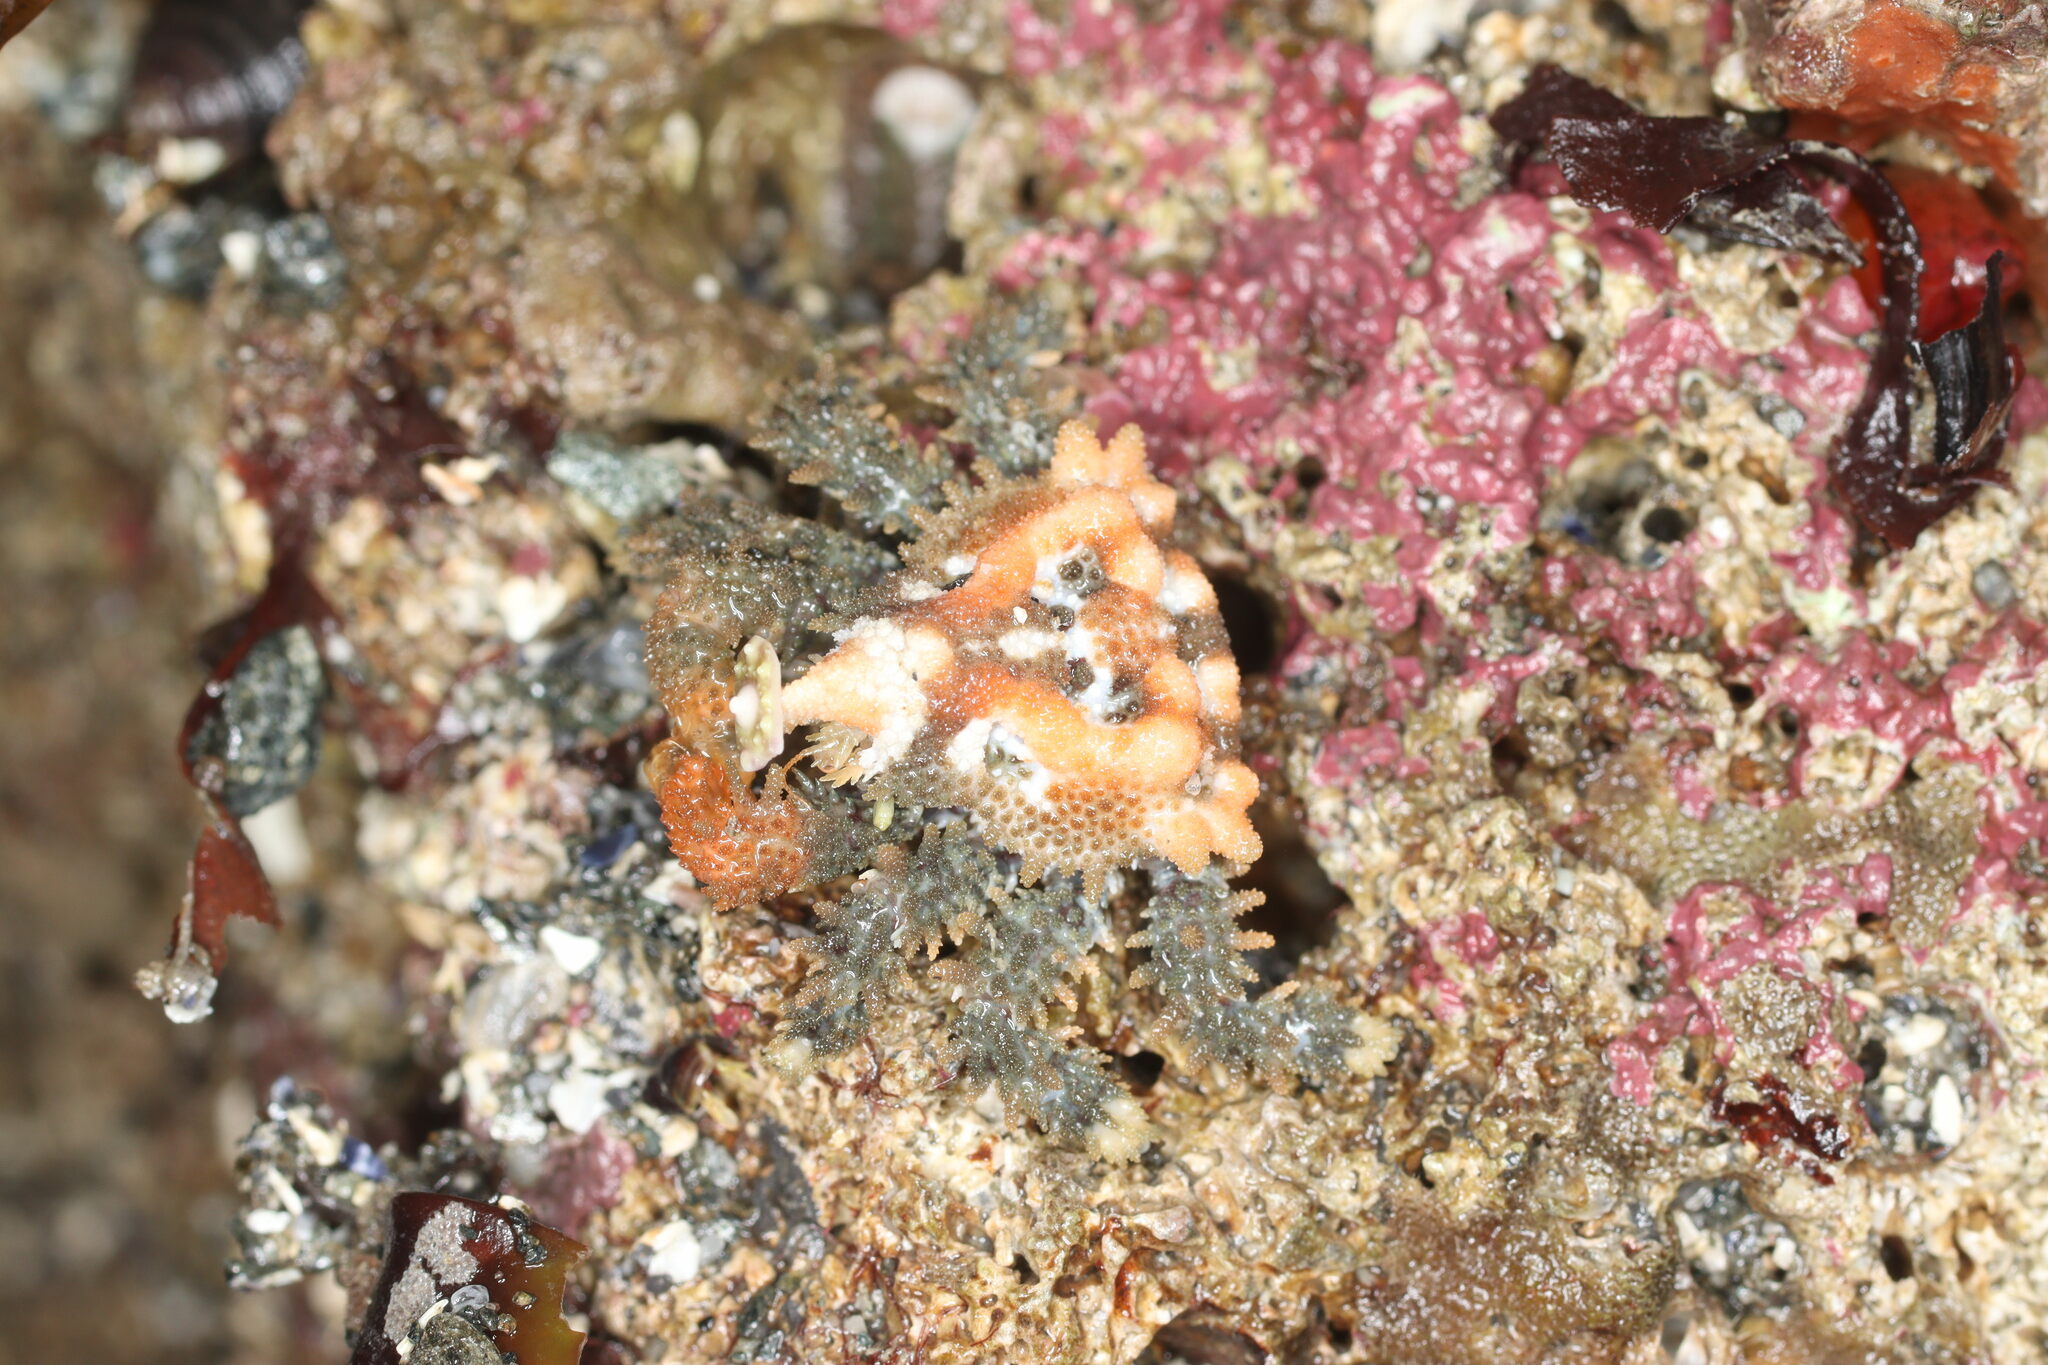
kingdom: Animalia
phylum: Arthropoda
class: Malacostraca
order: Decapoda
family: Lithodidae
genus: Phyllolithodes
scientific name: Phyllolithodes papillosus
